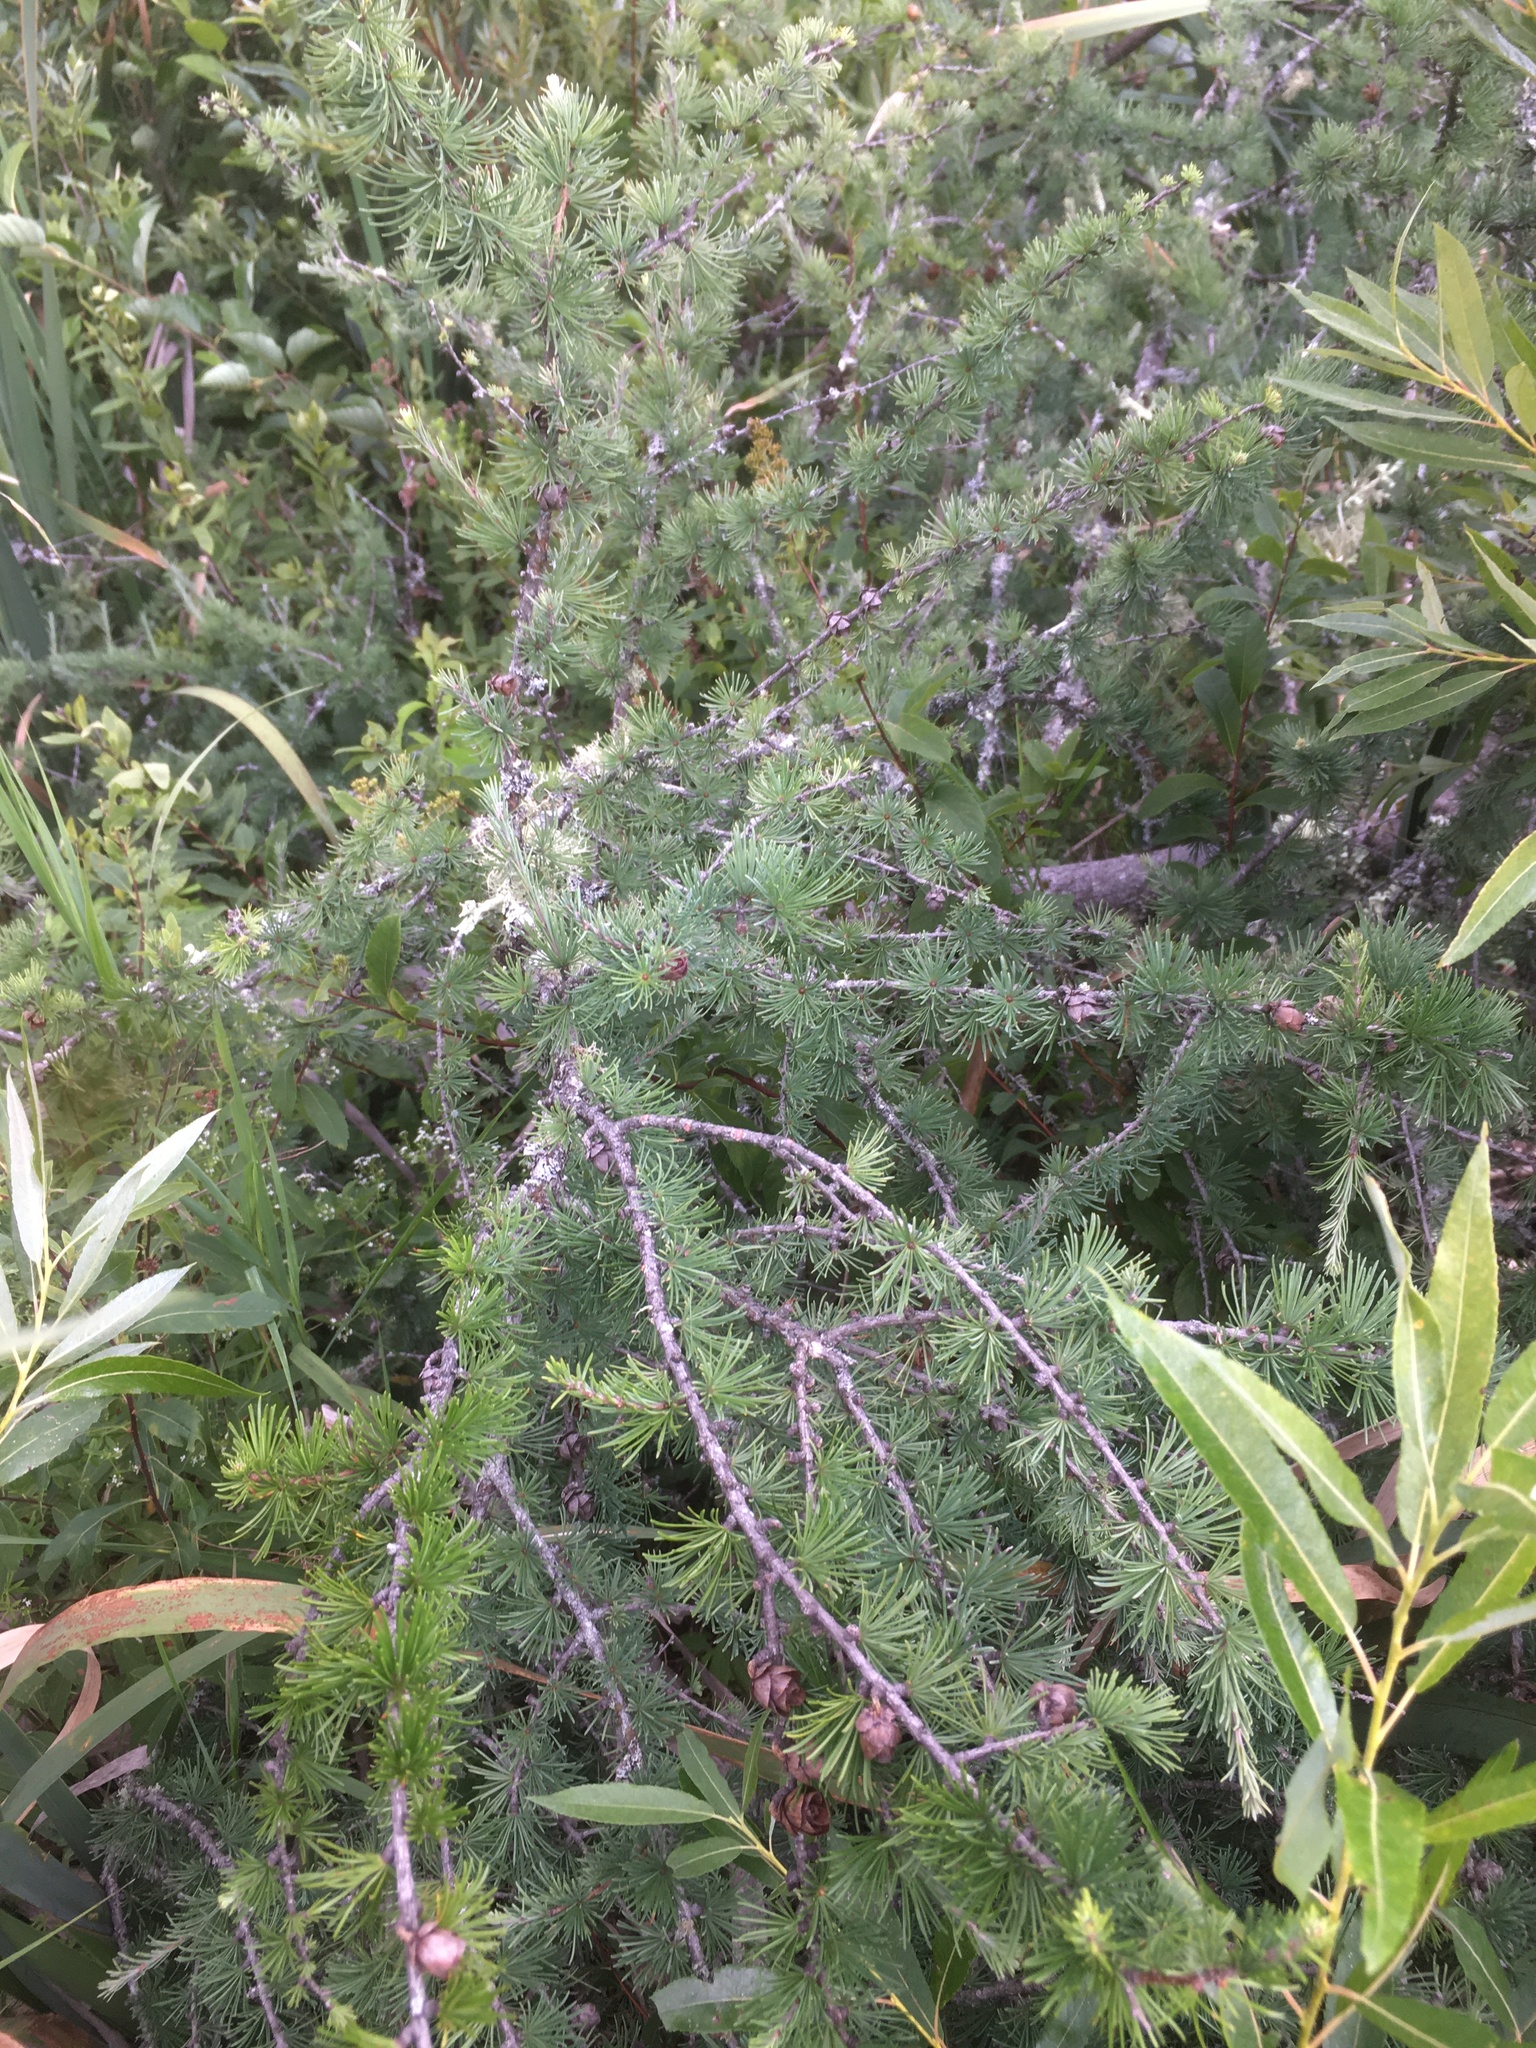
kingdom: Plantae
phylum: Tracheophyta
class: Pinopsida
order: Pinales
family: Pinaceae
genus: Larix
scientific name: Larix laricina
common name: American larch
